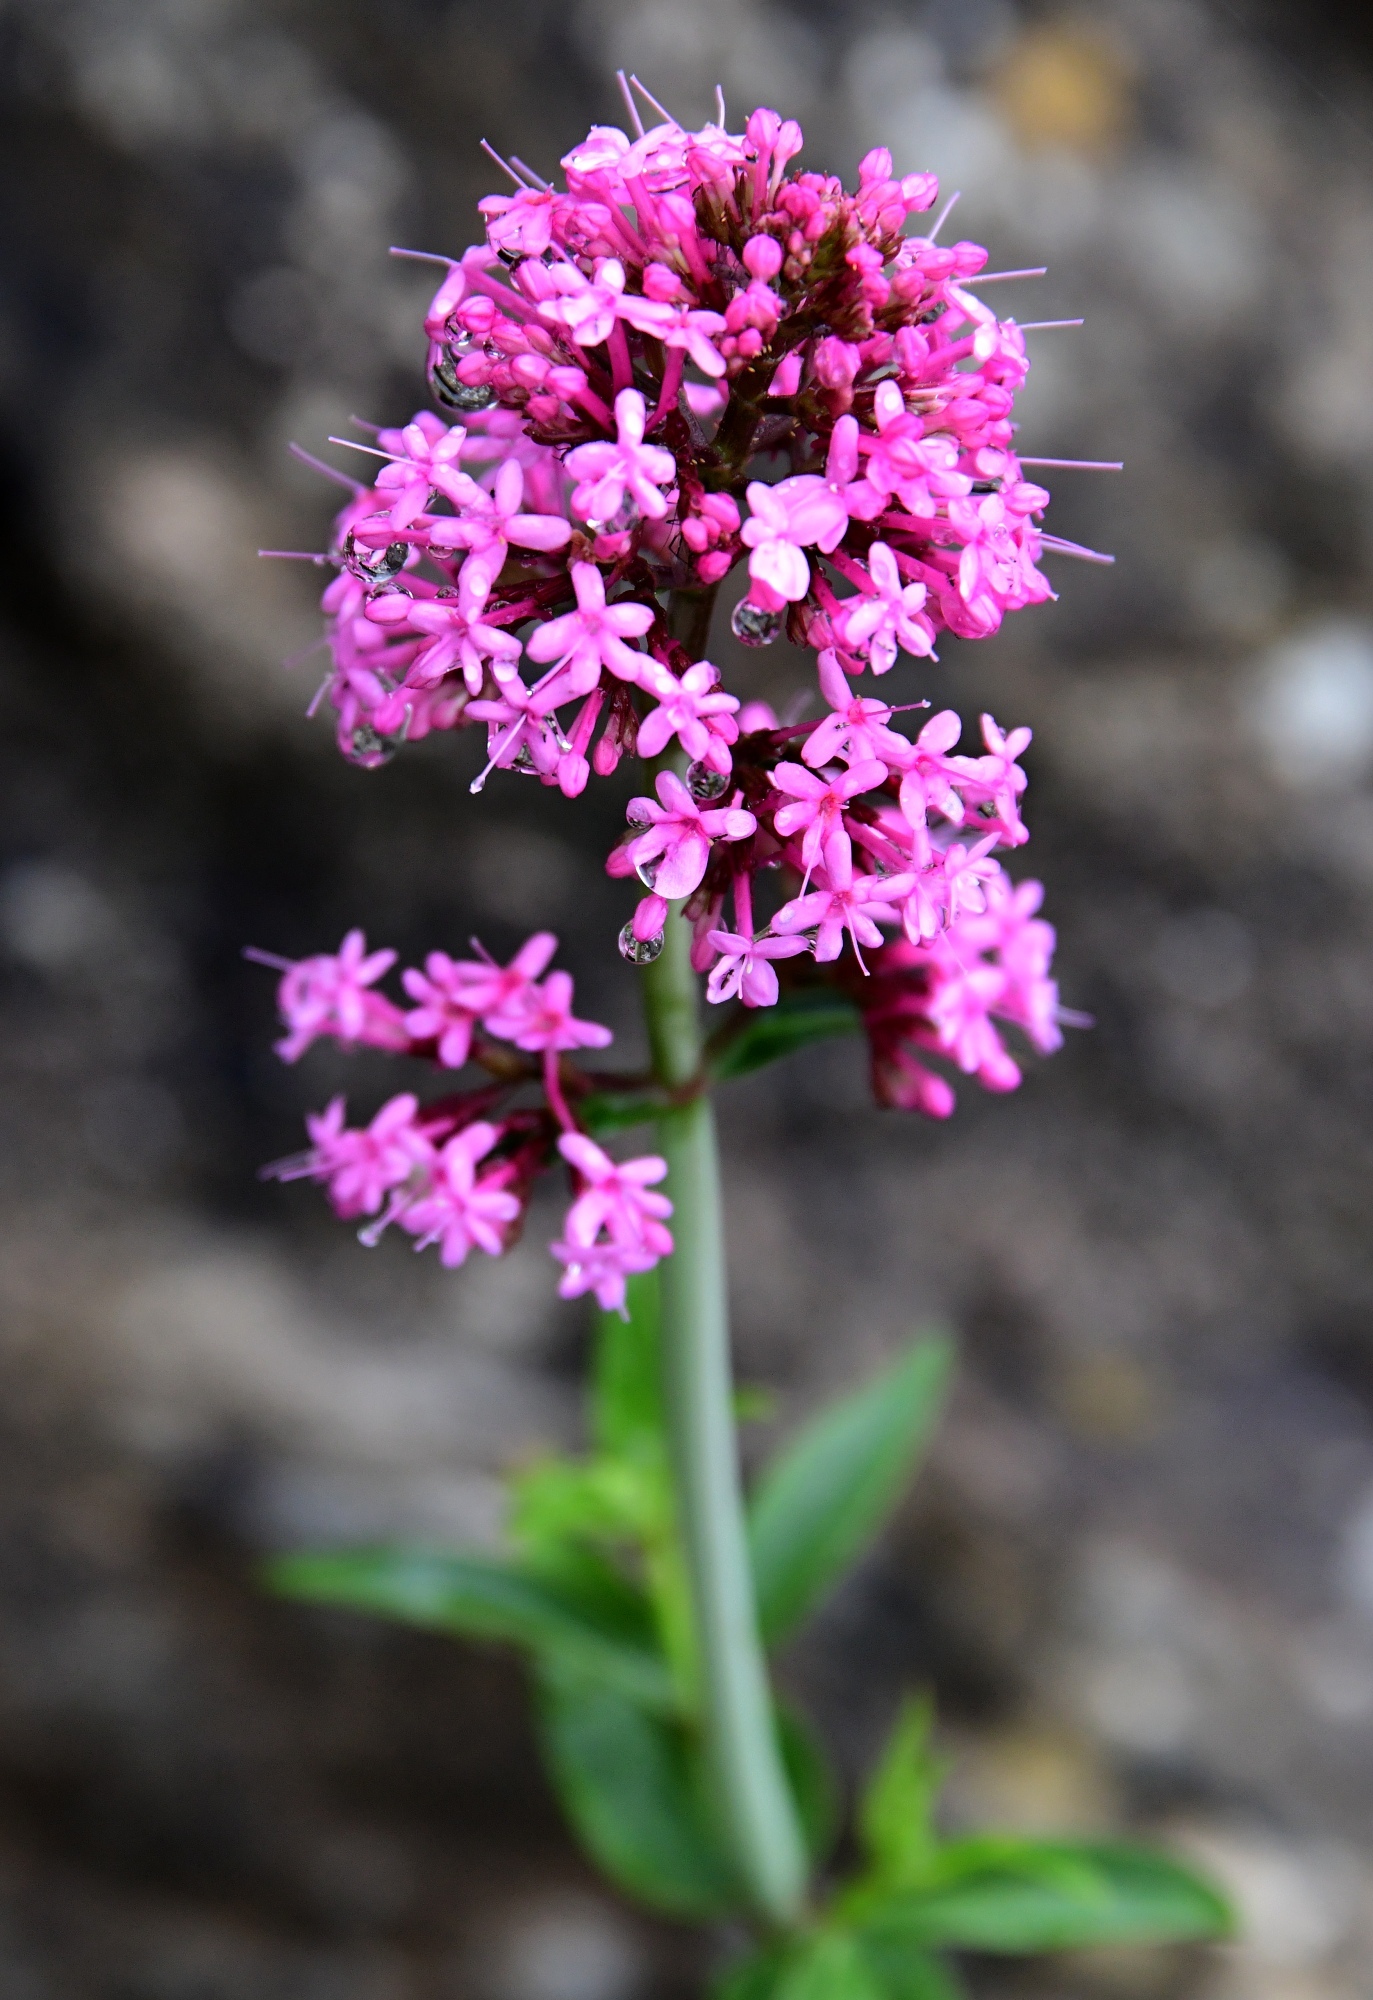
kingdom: Plantae
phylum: Tracheophyta
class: Magnoliopsida
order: Dipsacales
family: Caprifoliaceae
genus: Centranthus
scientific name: Centranthus ruber
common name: Red valerian
